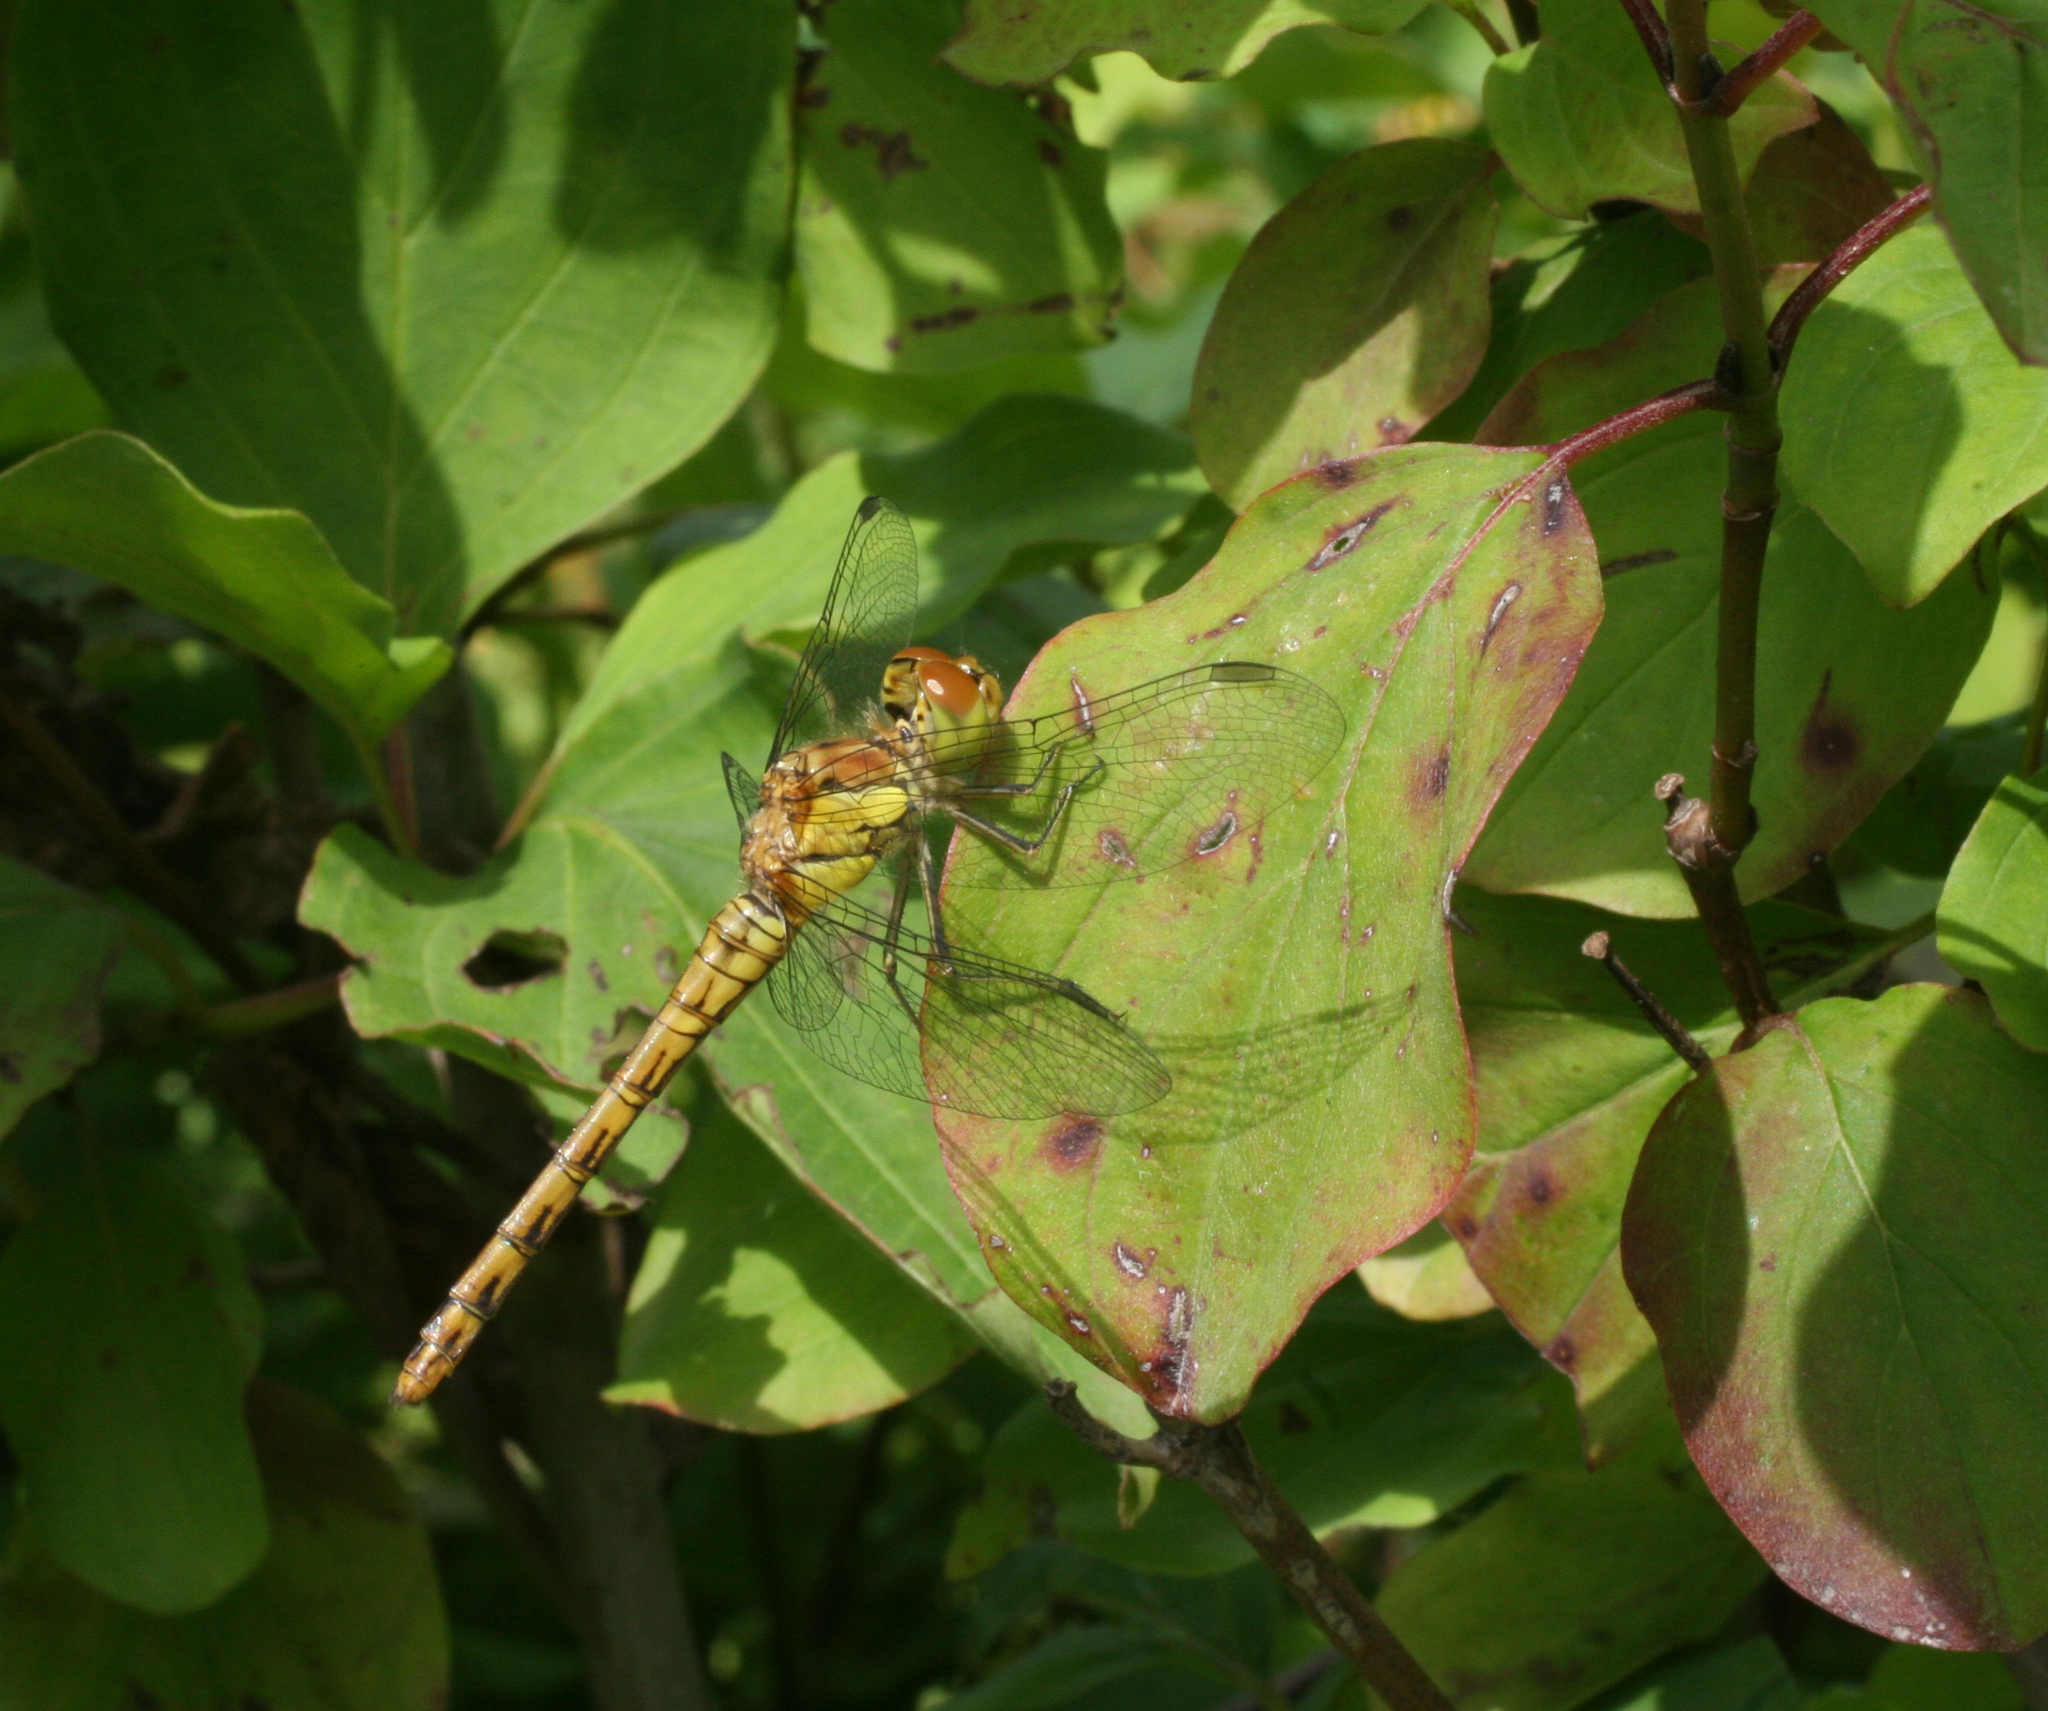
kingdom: Animalia
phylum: Arthropoda
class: Insecta
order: Odonata
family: Libellulidae
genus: Sympetrum
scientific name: Sympetrum striolatum
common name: Common darter
